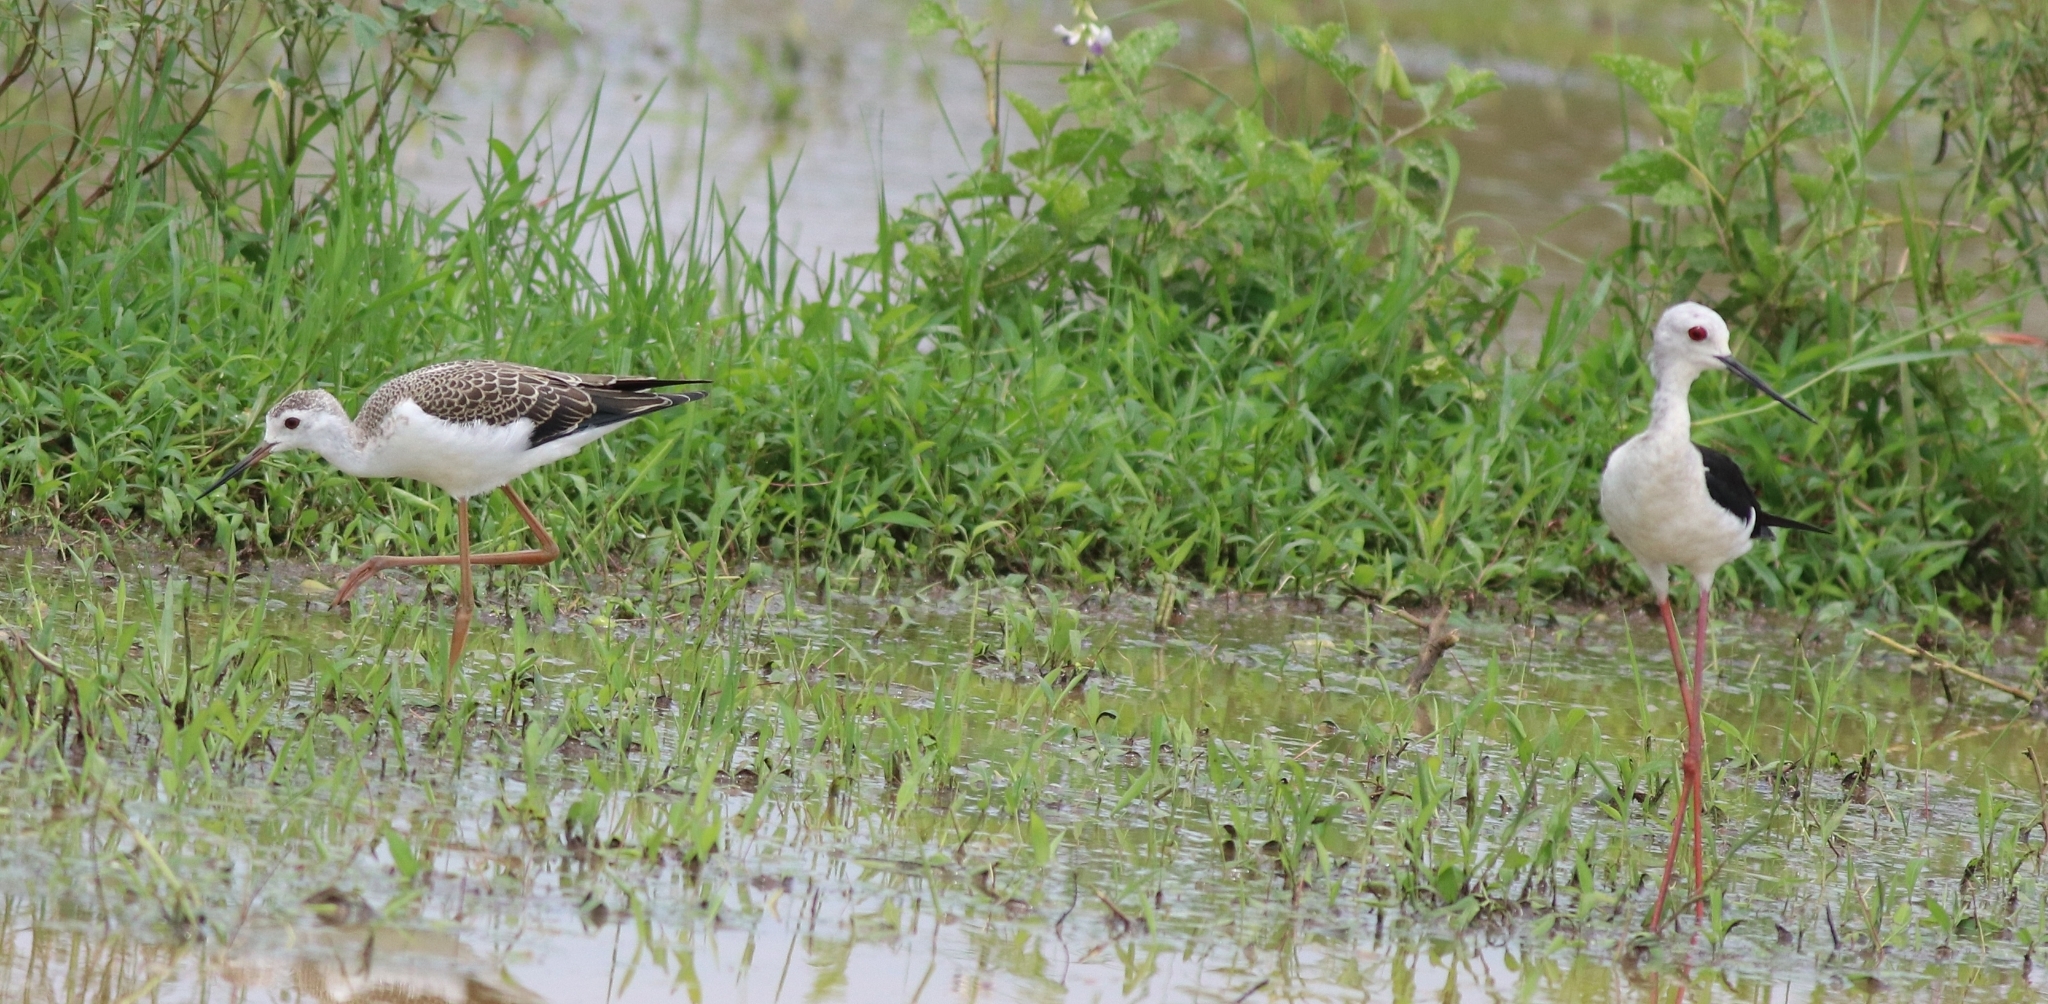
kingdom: Animalia
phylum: Chordata
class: Aves
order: Charadriiformes
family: Recurvirostridae
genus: Himantopus
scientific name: Himantopus himantopus
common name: Black-winged stilt
